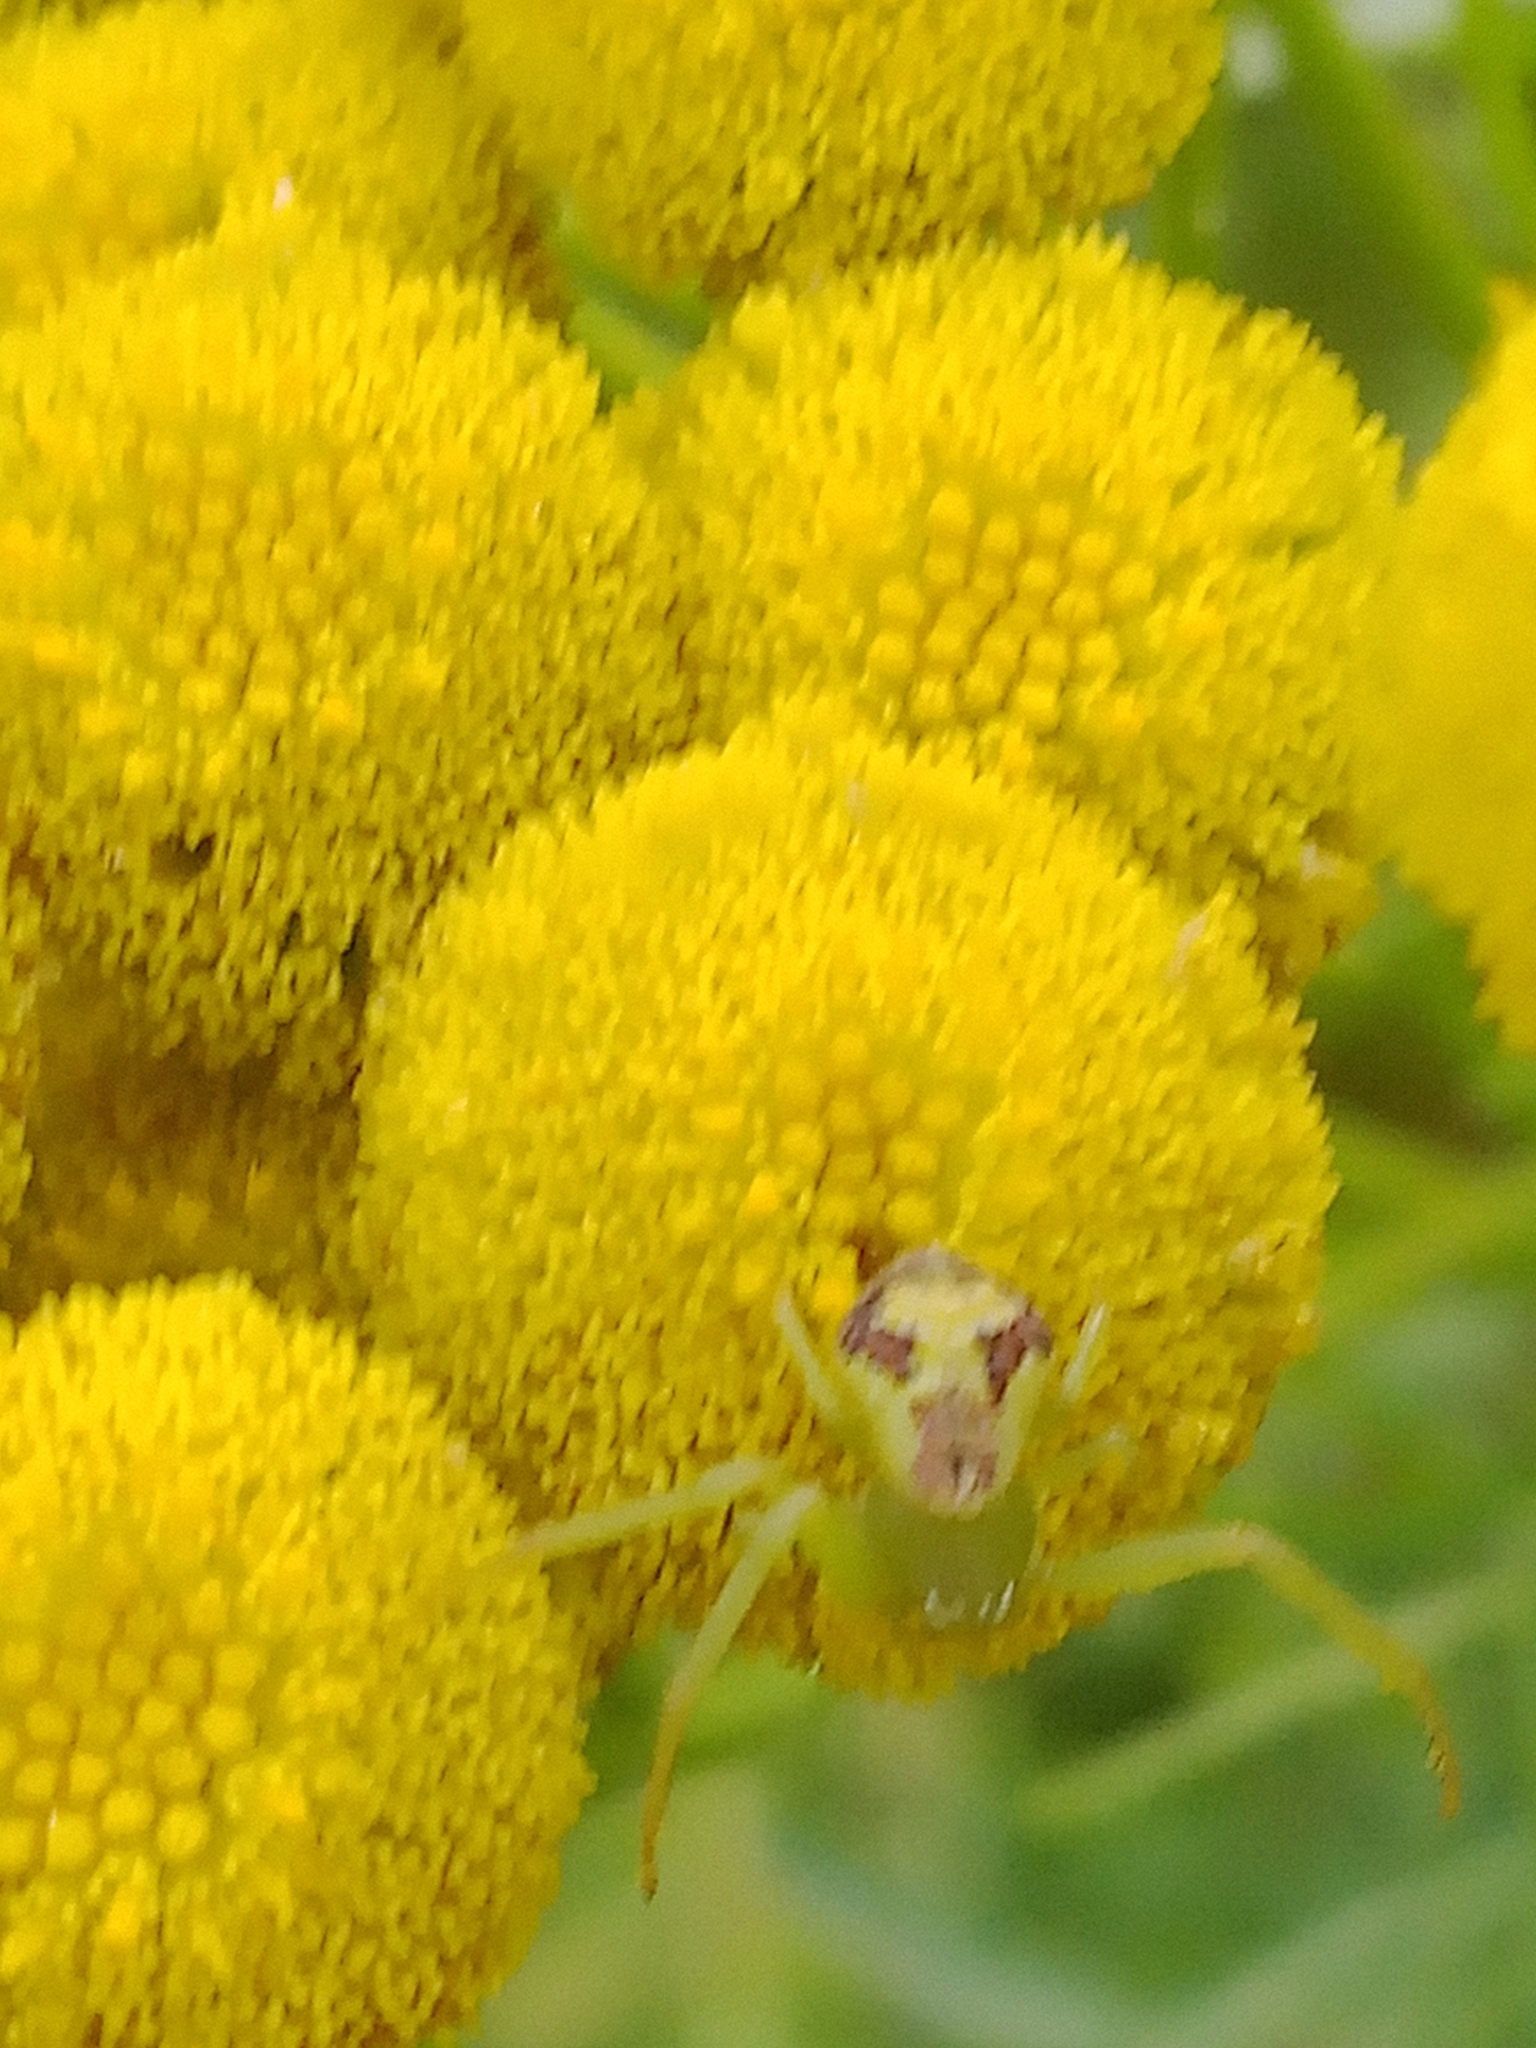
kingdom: Animalia
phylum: Arthropoda
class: Arachnida
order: Araneae
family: Thomisidae
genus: Ebrechtella
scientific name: Ebrechtella tricuspidata
